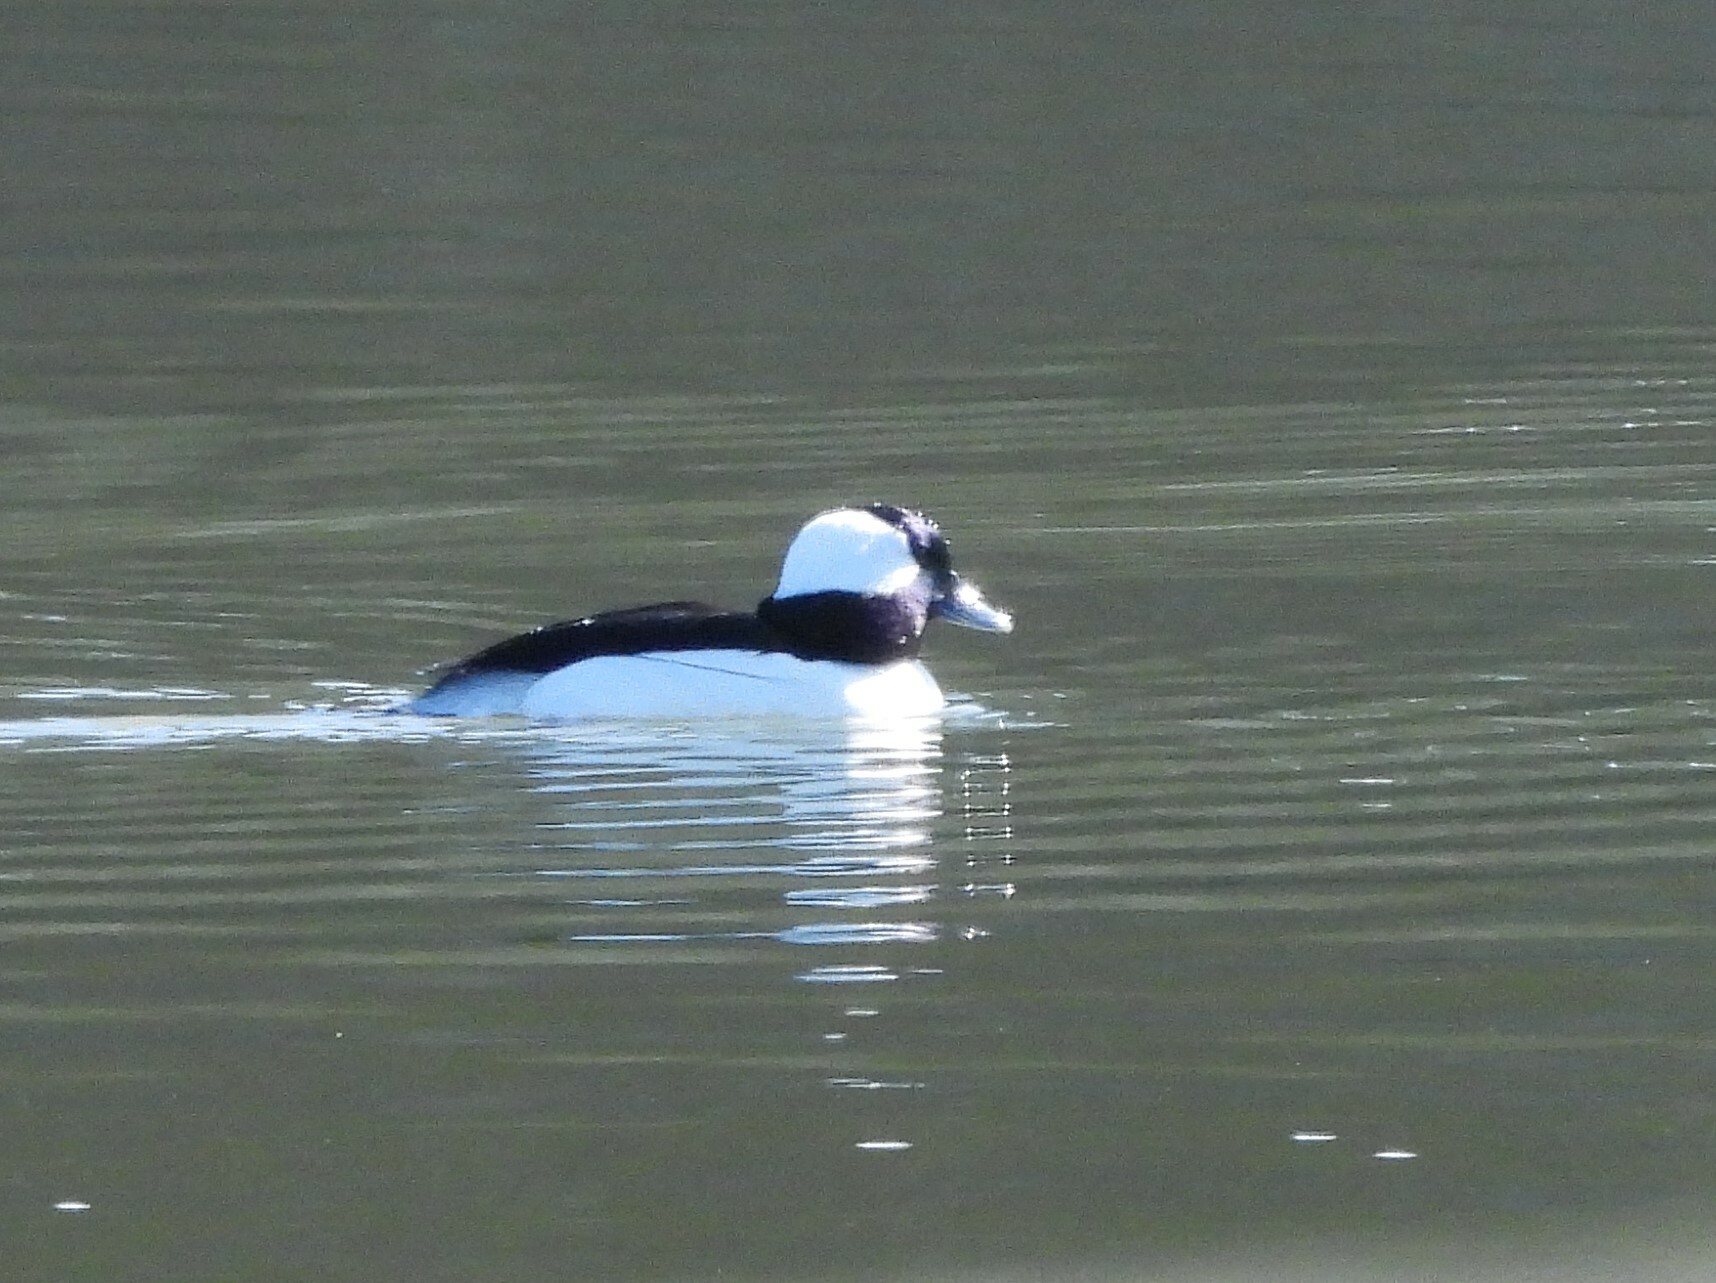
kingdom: Animalia
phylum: Chordata
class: Aves
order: Anseriformes
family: Anatidae
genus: Bucephala
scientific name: Bucephala albeola
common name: Bufflehead
